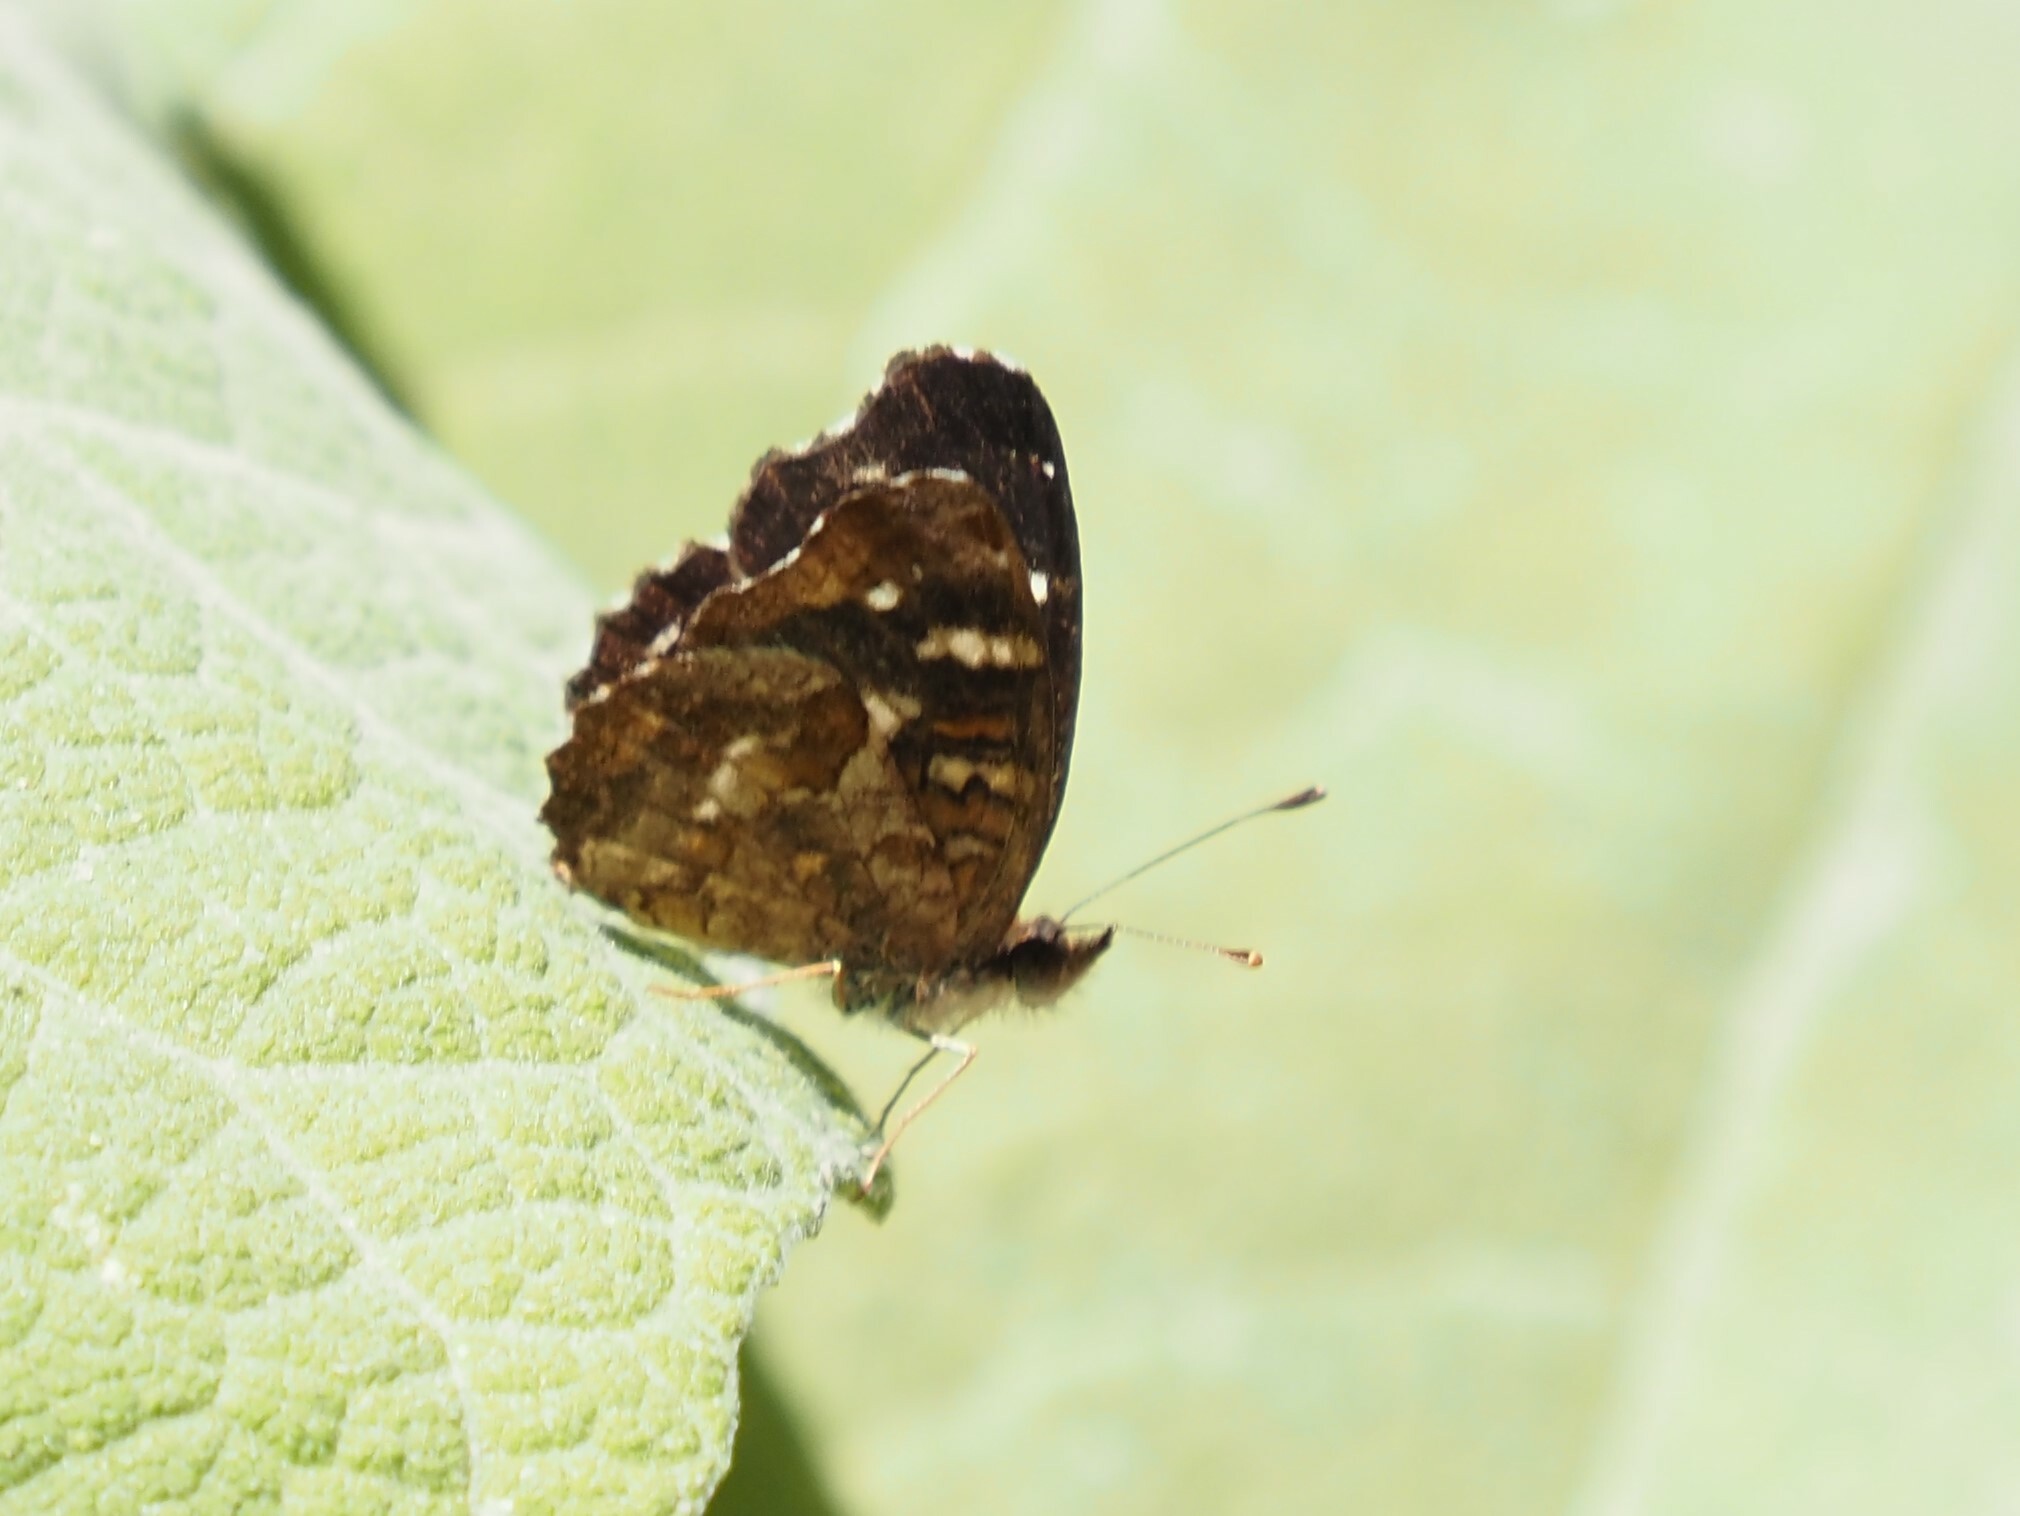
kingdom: Animalia
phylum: Arthropoda
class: Insecta
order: Lepidoptera
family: Nymphalidae
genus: Anthanassa
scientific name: Anthanassa tulcis
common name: Pale-banded crescent
